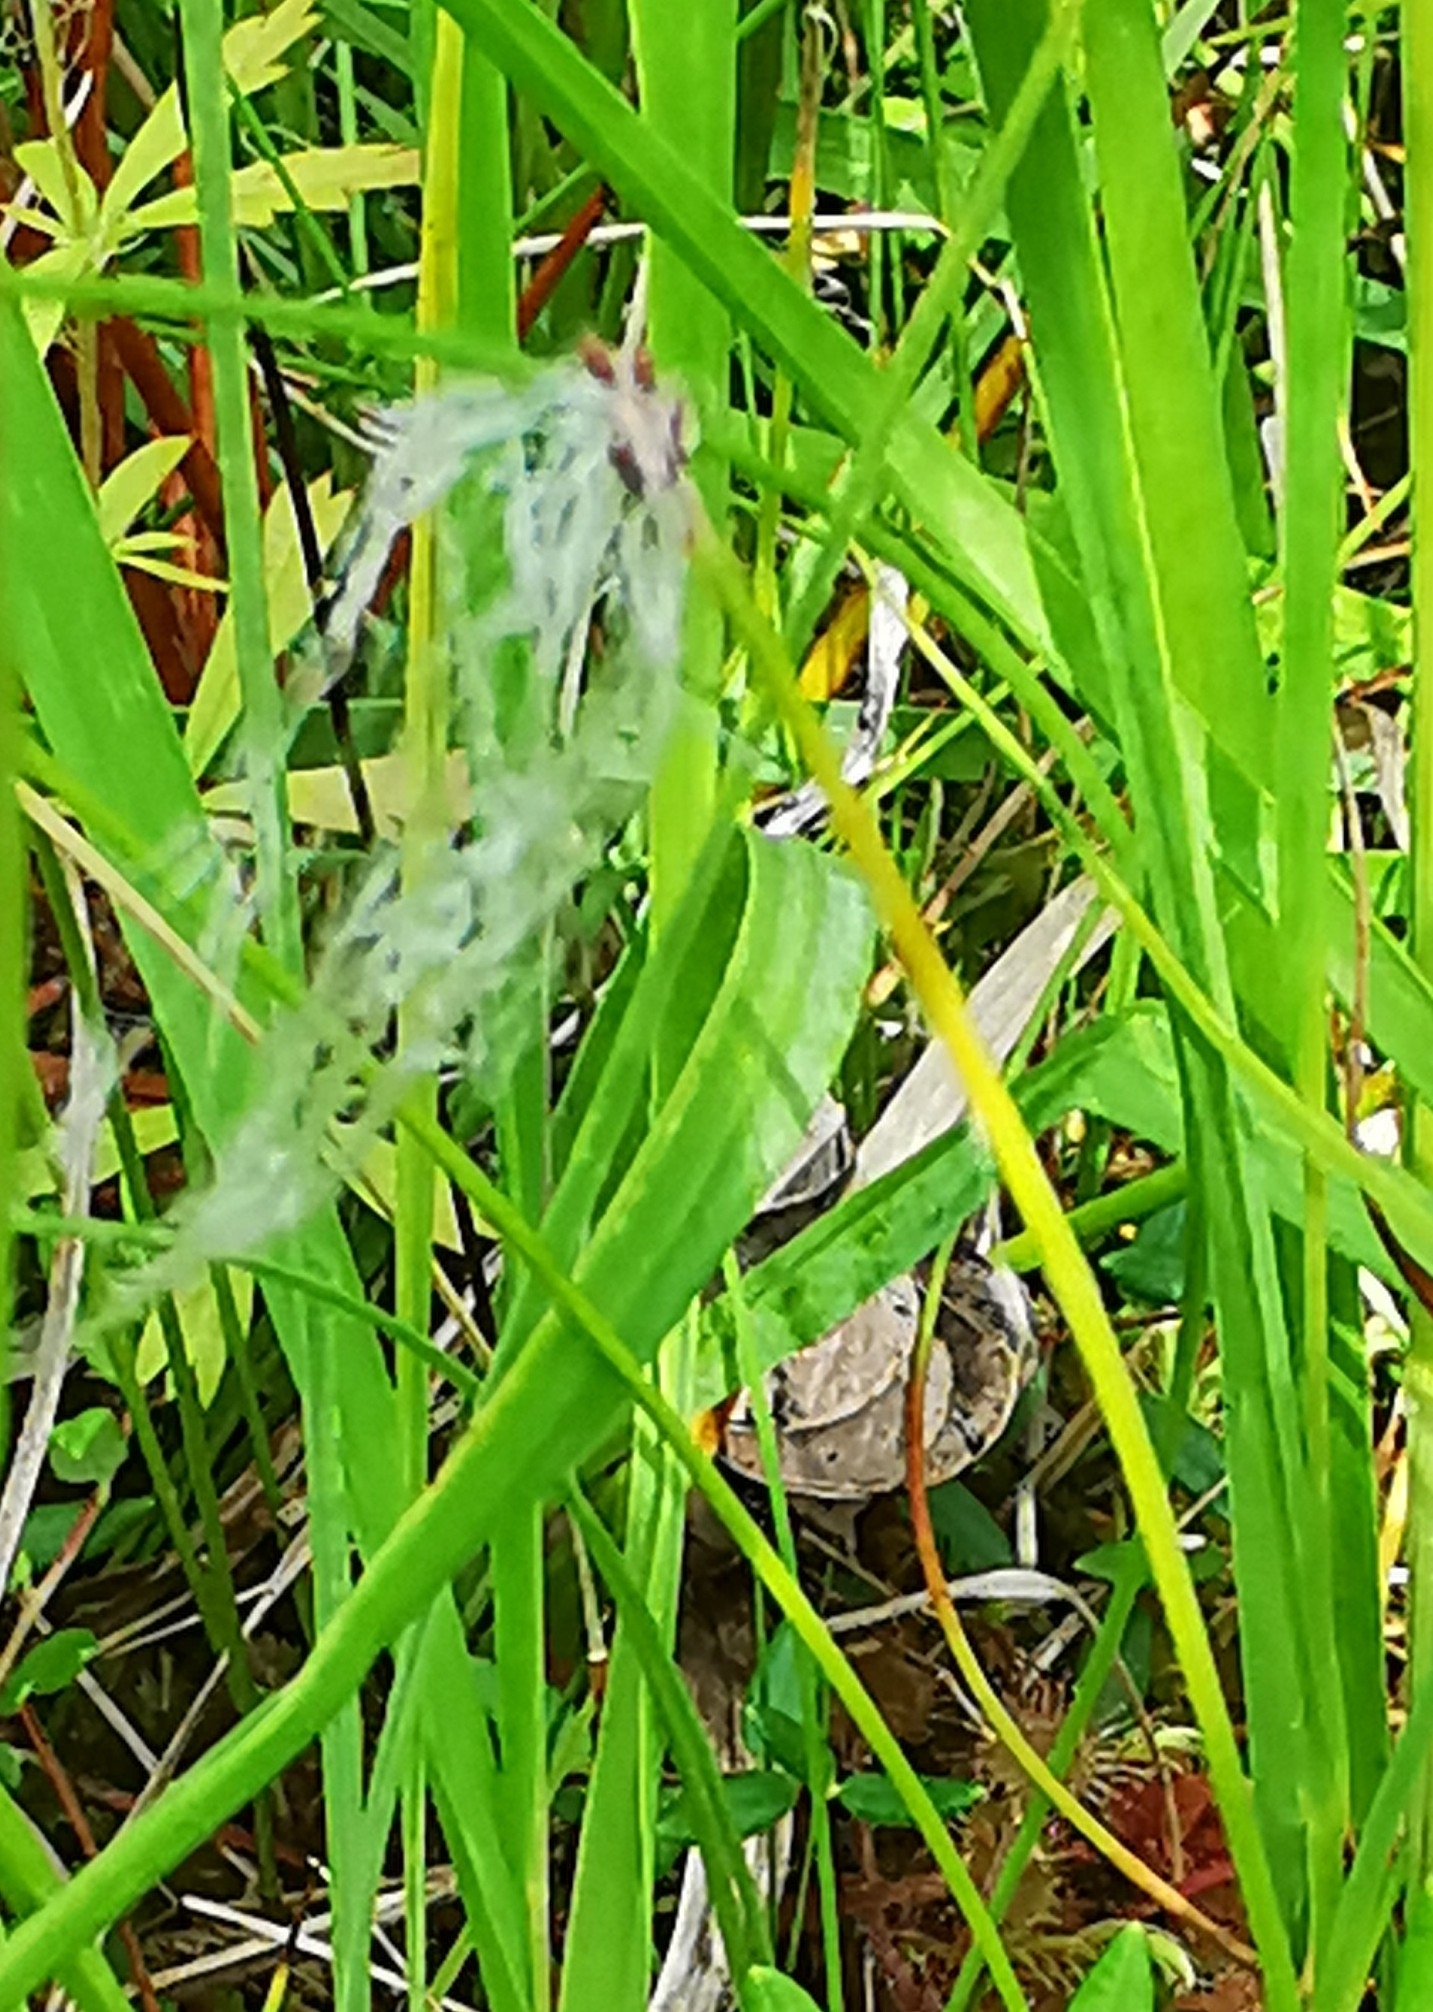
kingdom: Plantae
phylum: Tracheophyta
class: Liliopsida
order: Poales
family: Cyperaceae
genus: Trichophorum
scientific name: Trichophorum alpinum
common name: Alpine bulrush
